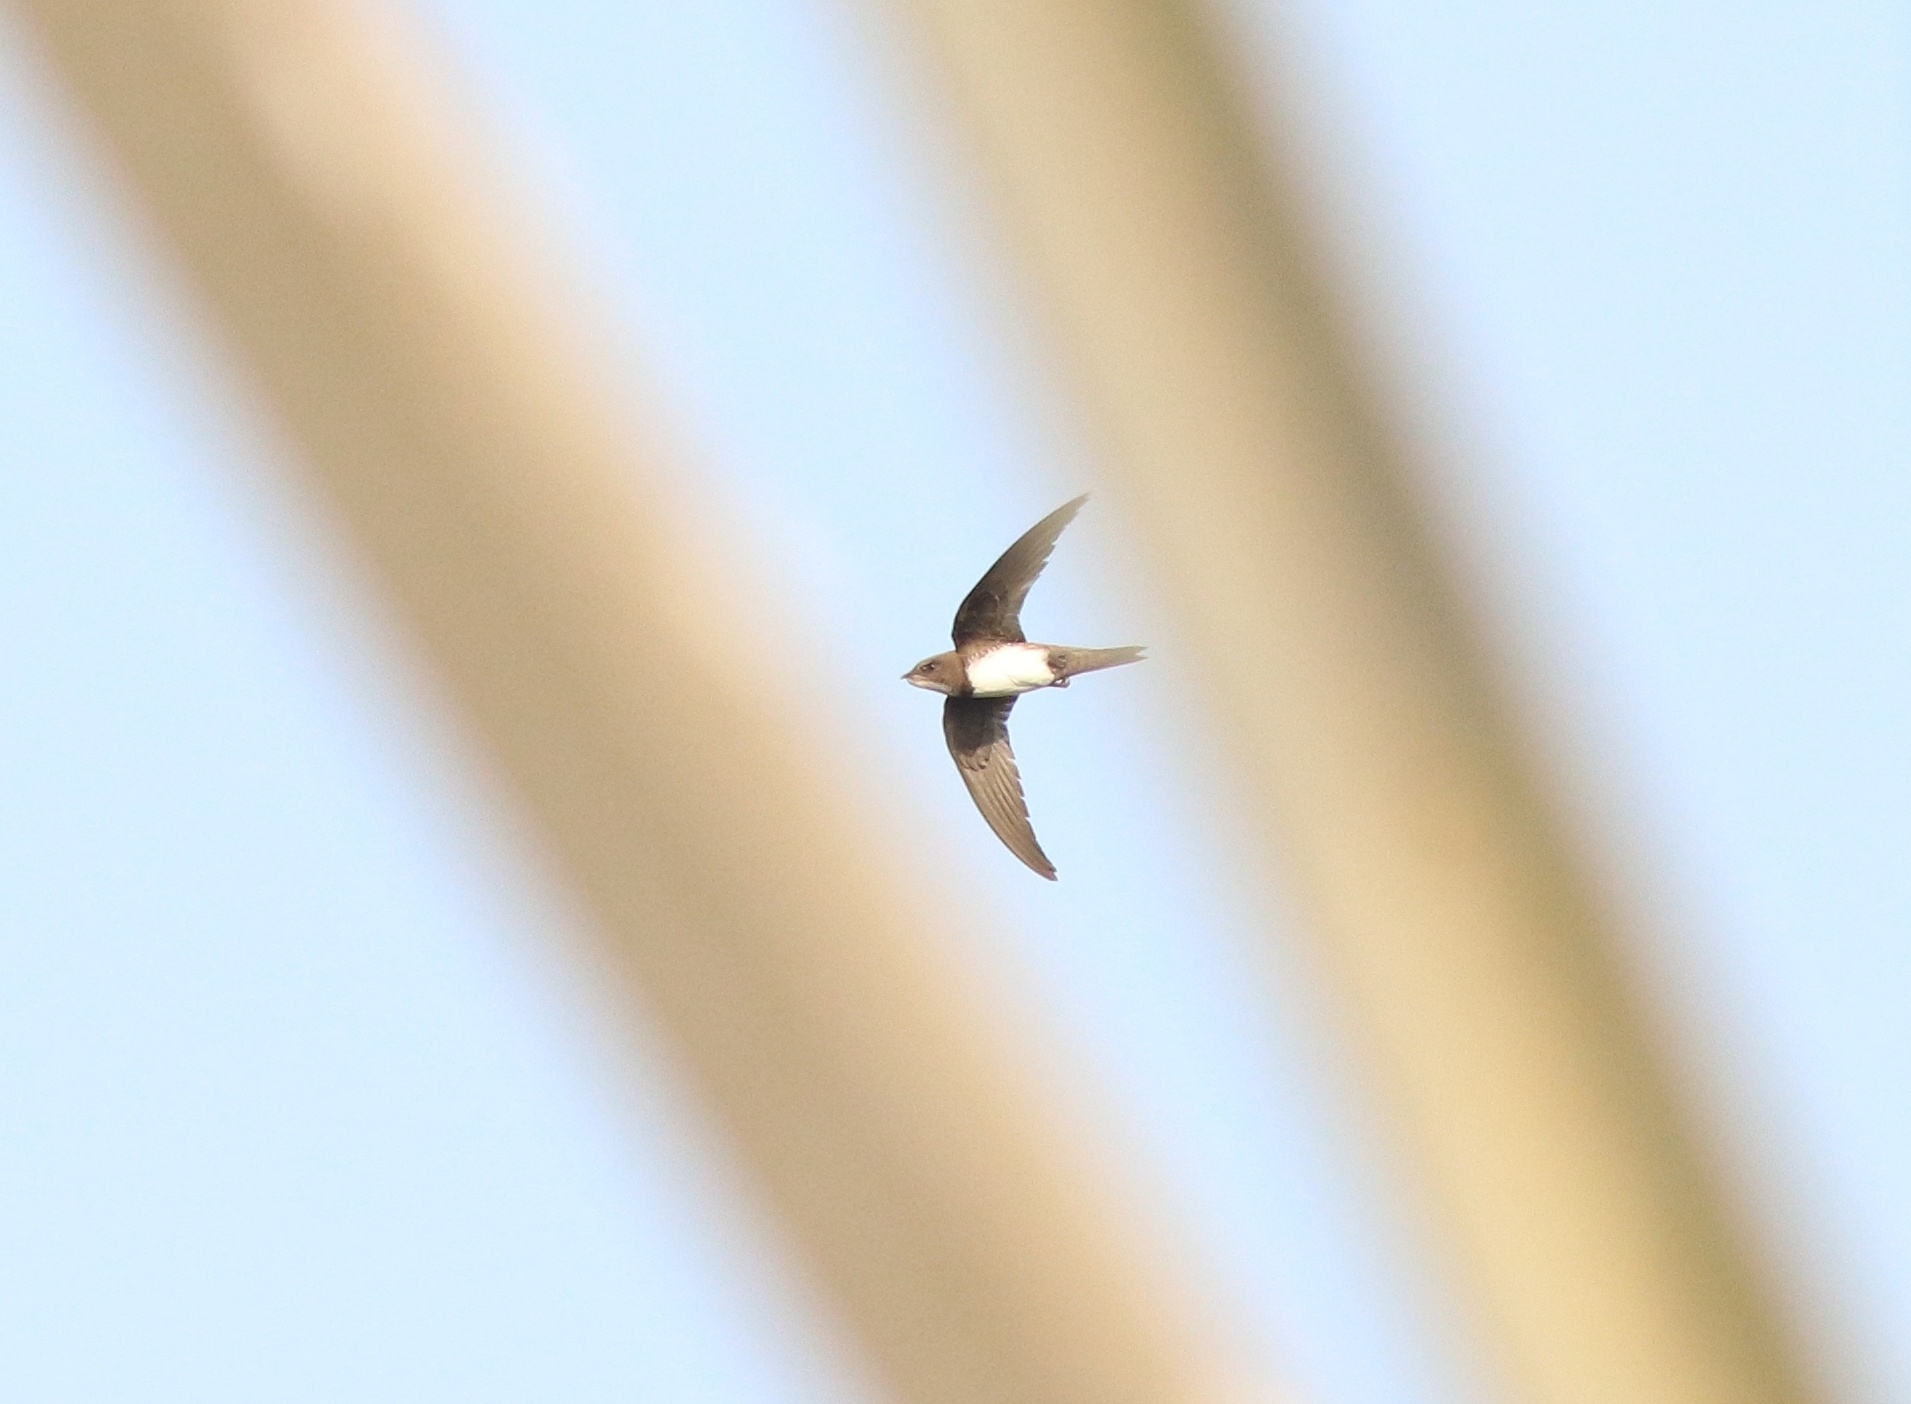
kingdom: Animalia
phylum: Chordata
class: Aves
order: Apodiformes
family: Apodidae
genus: Tachymarptis
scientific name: Tachymarptis melba
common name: Alpine swift
